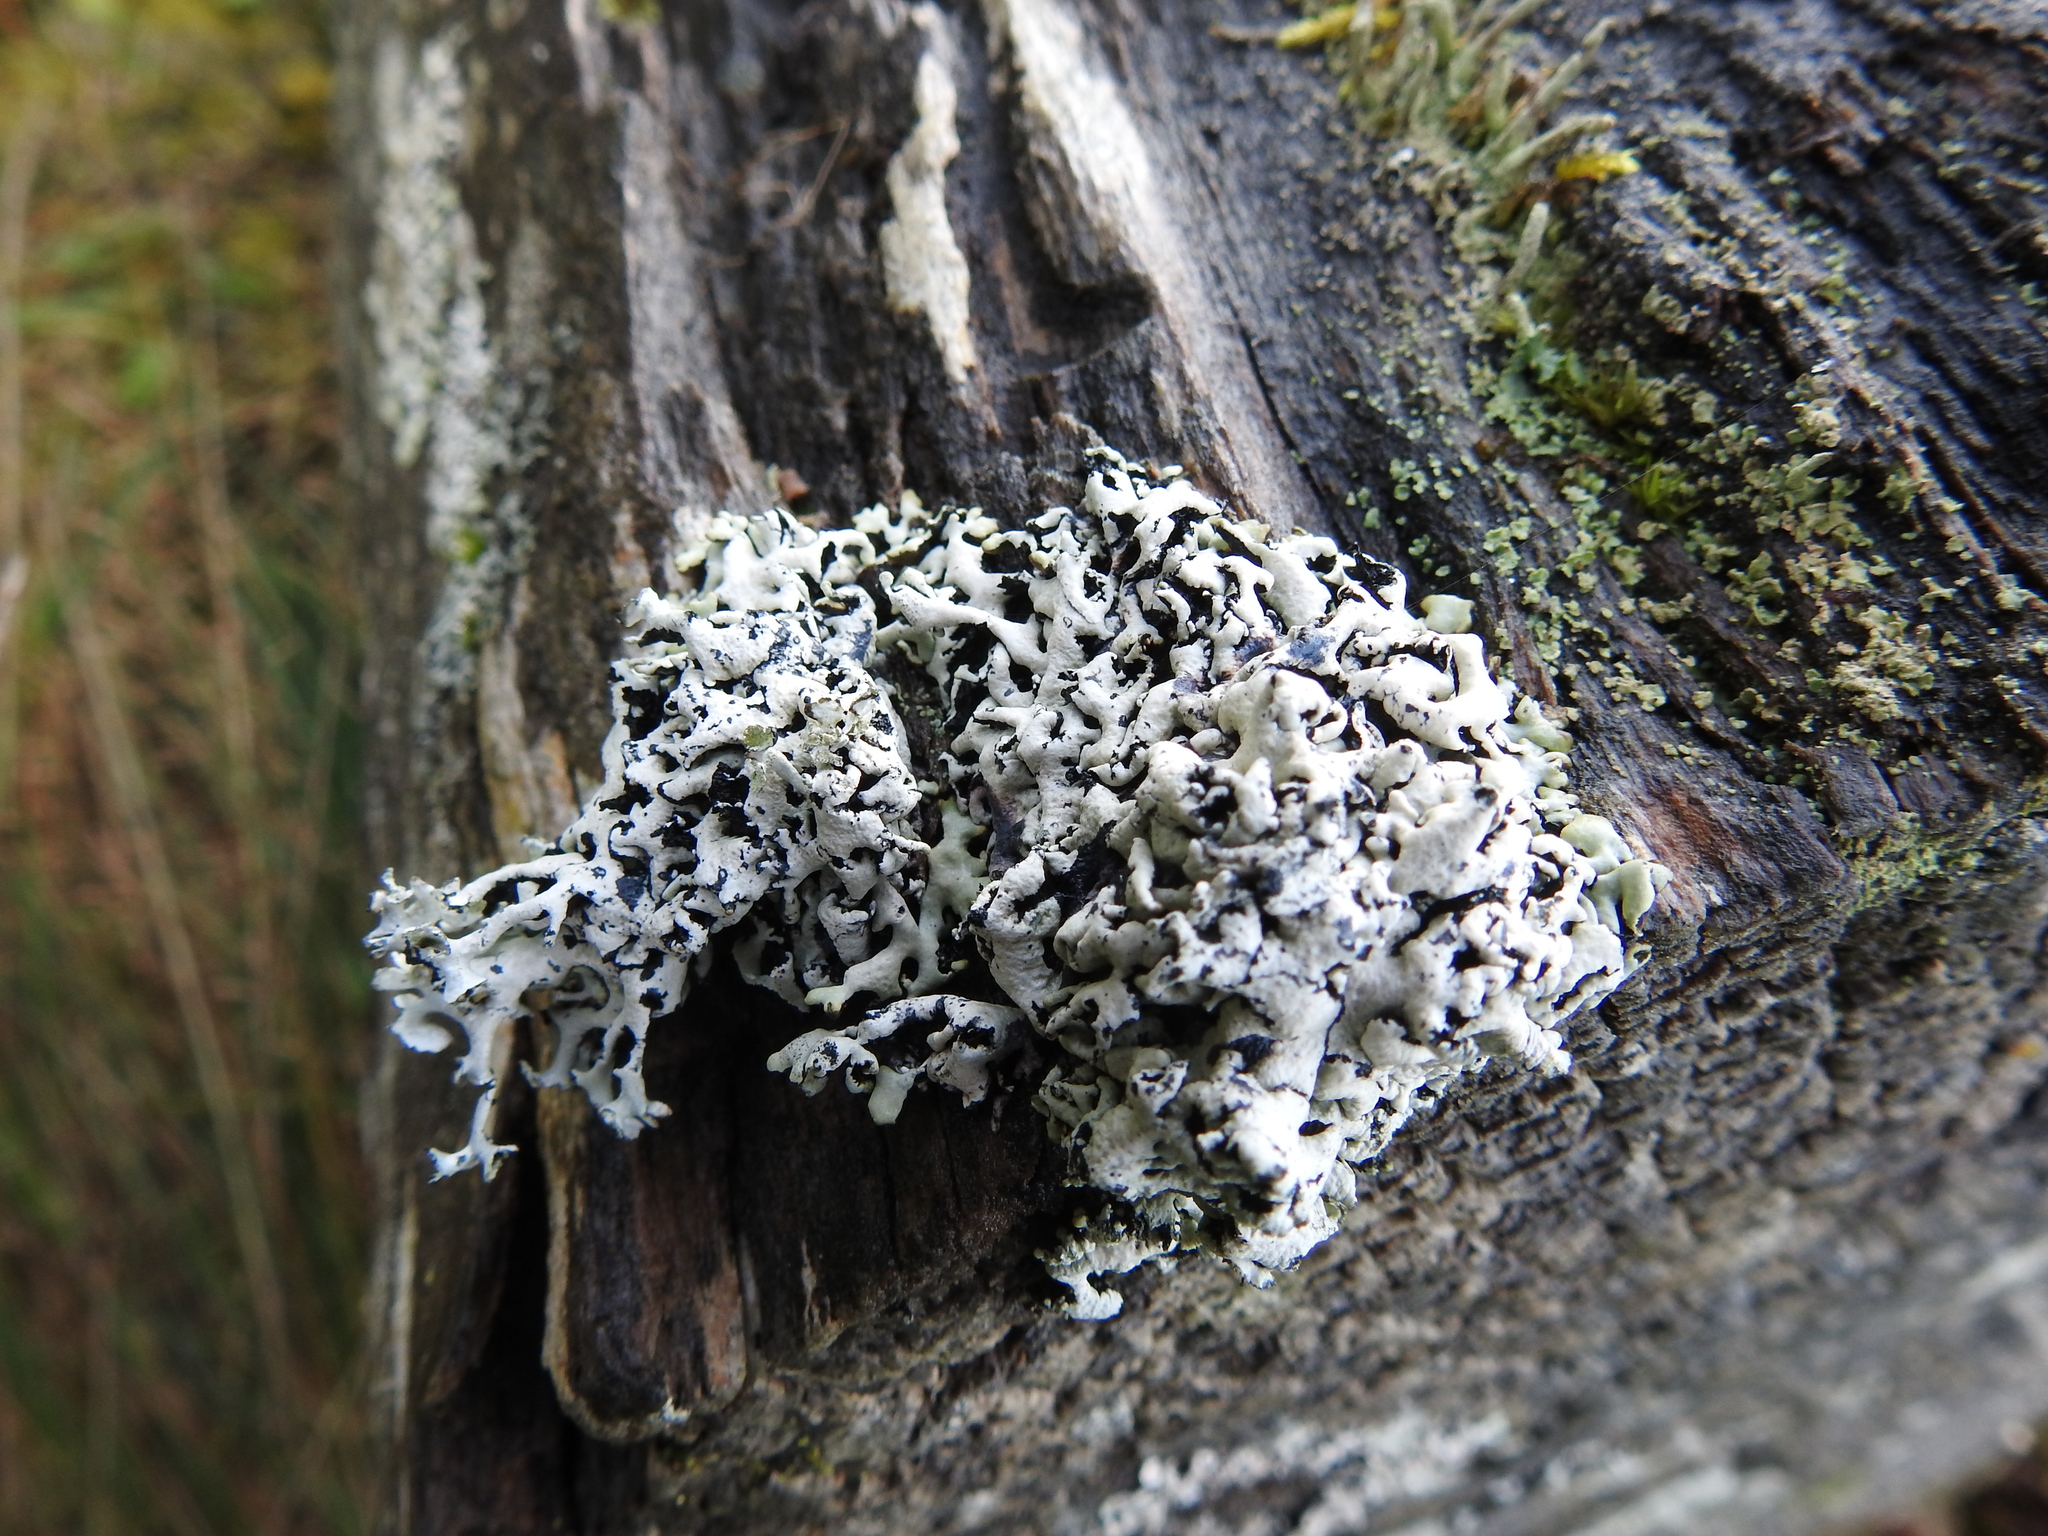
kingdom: Fungi
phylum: Ascomycota
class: Lecanoromycetes
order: Lecanorales
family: Parmeliaceae
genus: Hypogymnia
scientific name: Hypogymnia physodes
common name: Dark crottle
